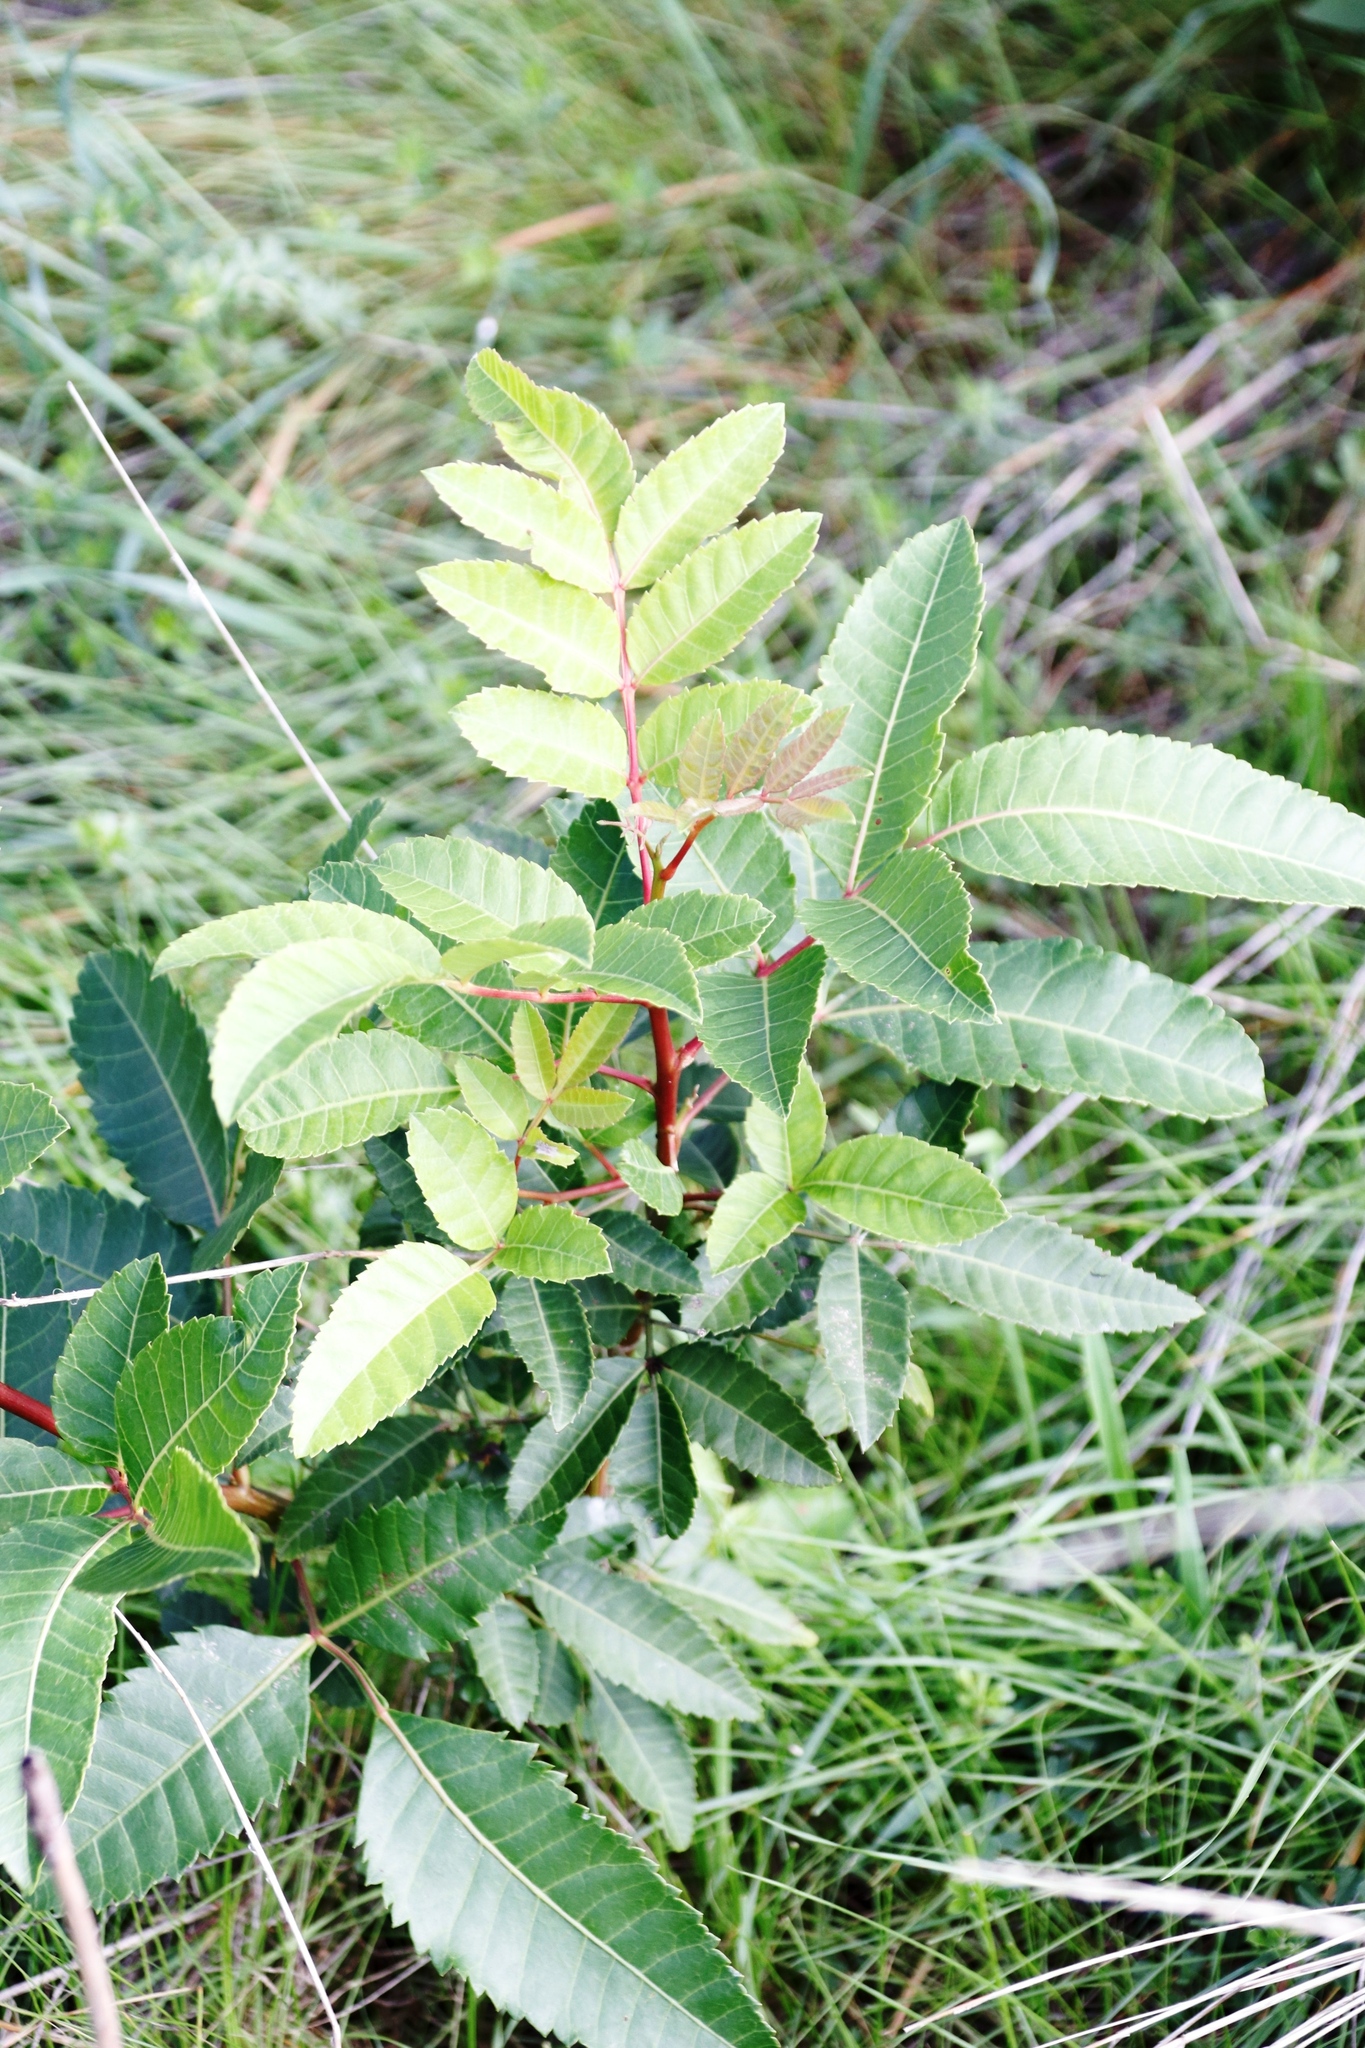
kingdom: Plantae
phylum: Tracheophyta
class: Magnoliopsida
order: Sapindales
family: Anacardiaceae
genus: Schinus
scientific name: Schinus terebinthifolia
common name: Brazilian peppertree
